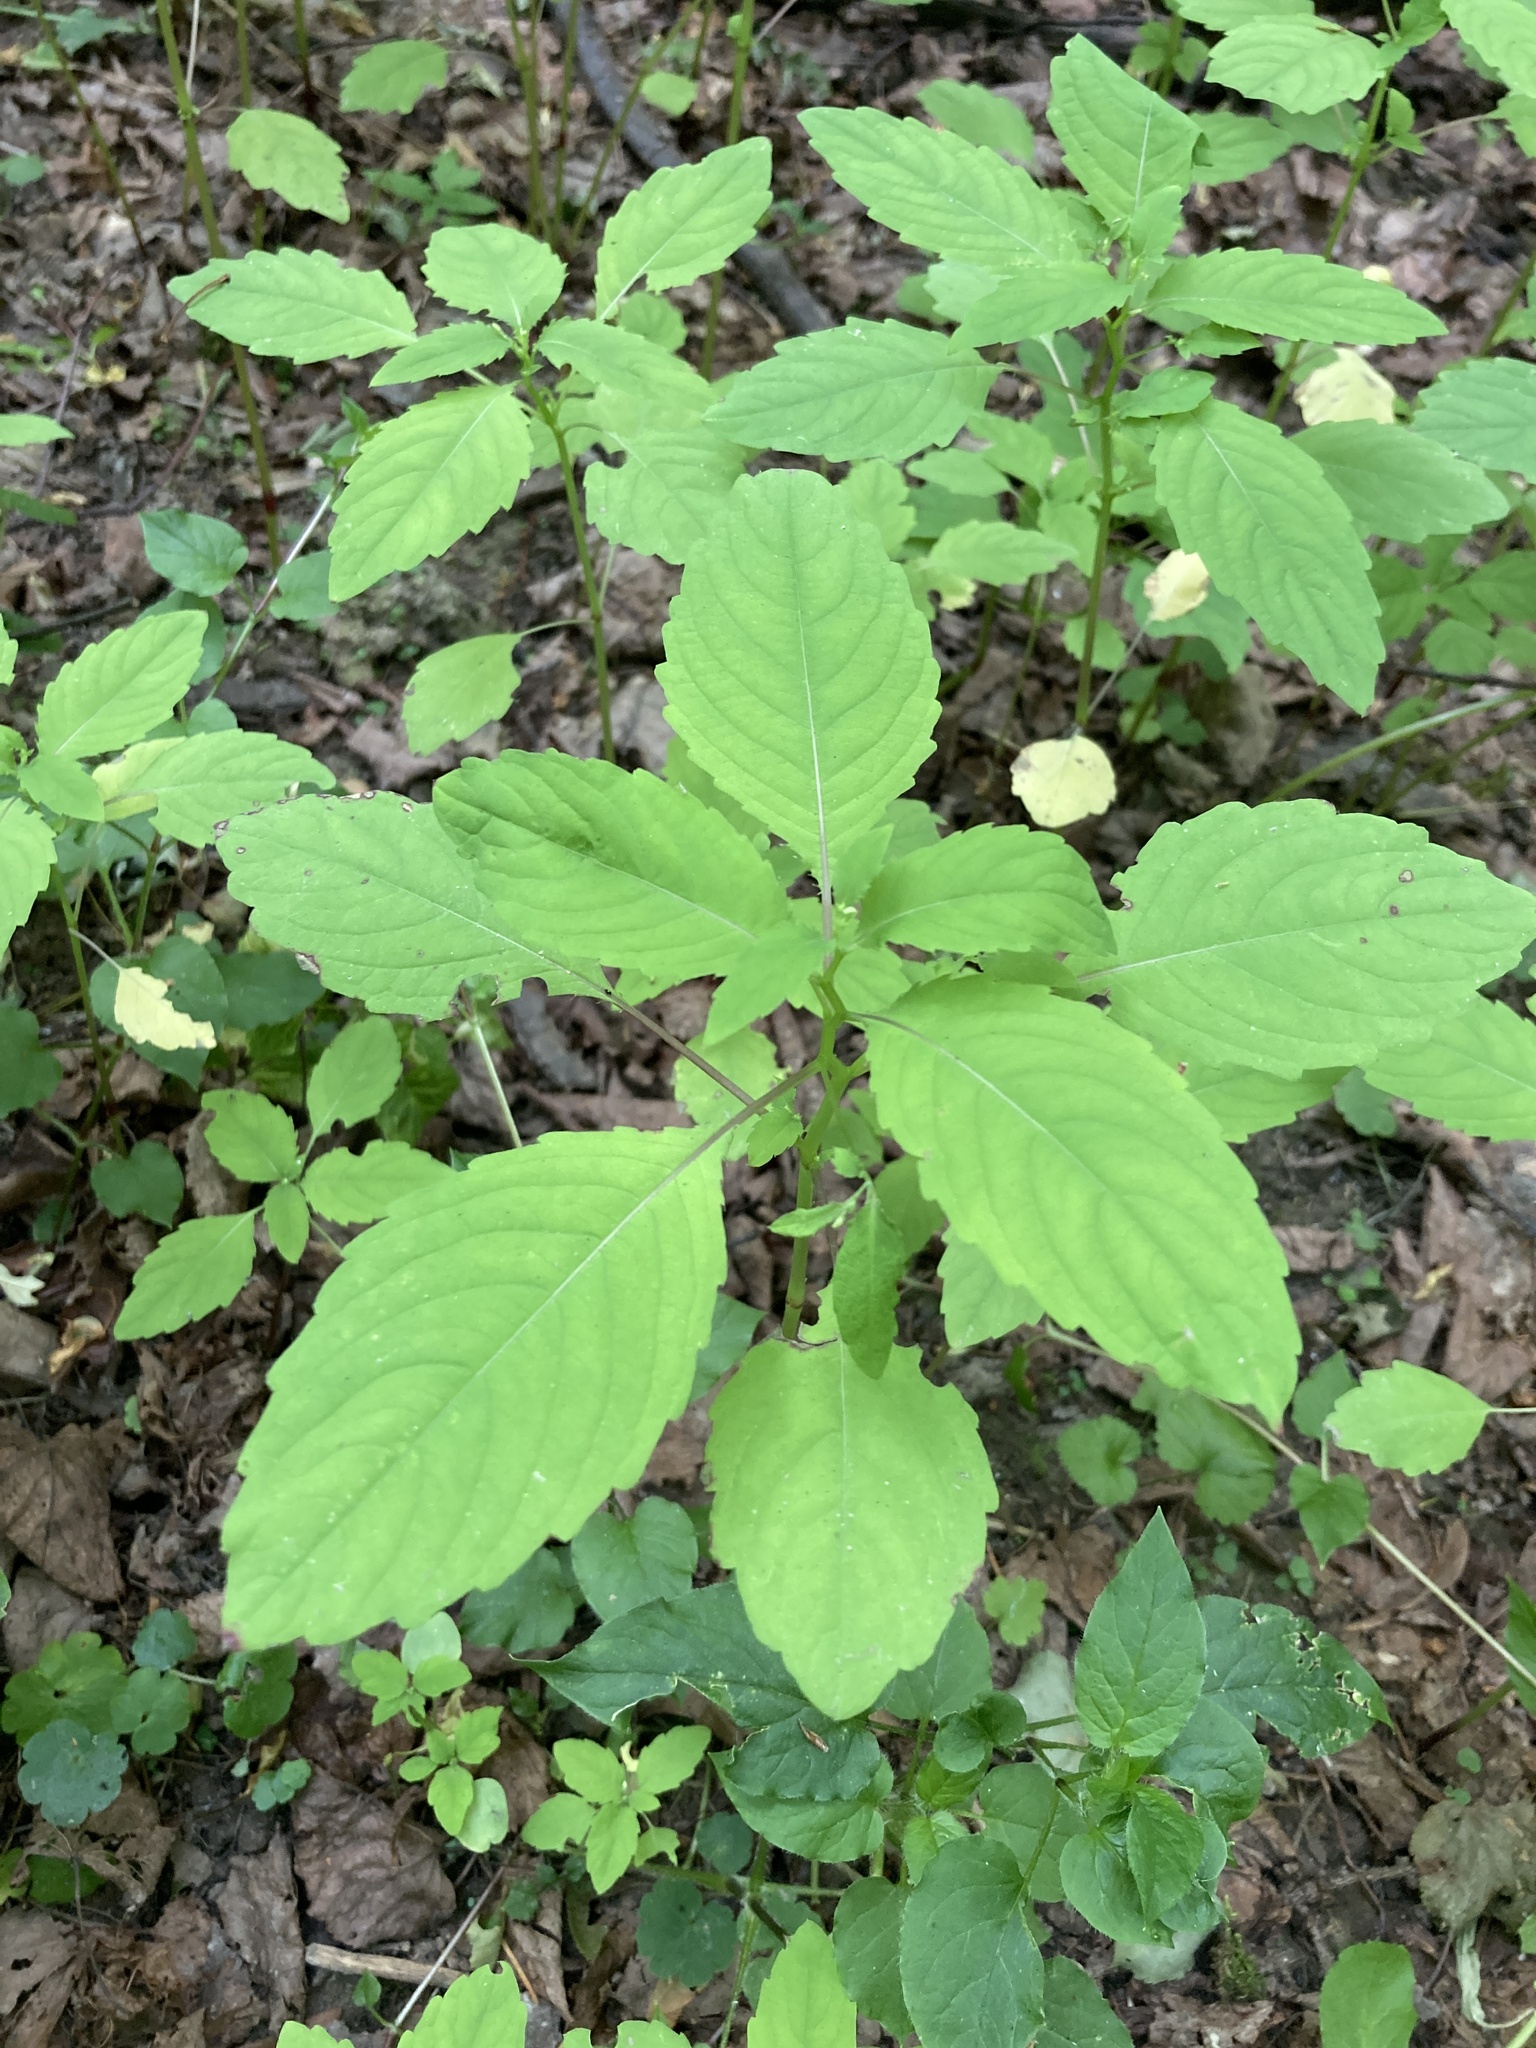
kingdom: Plantae
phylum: Tracheophyta
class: Magnoliopsida
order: Ericales
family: Balsaminaceae
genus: Impatiens
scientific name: Impatiens noli-tangere
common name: Touch-me-not balsam
